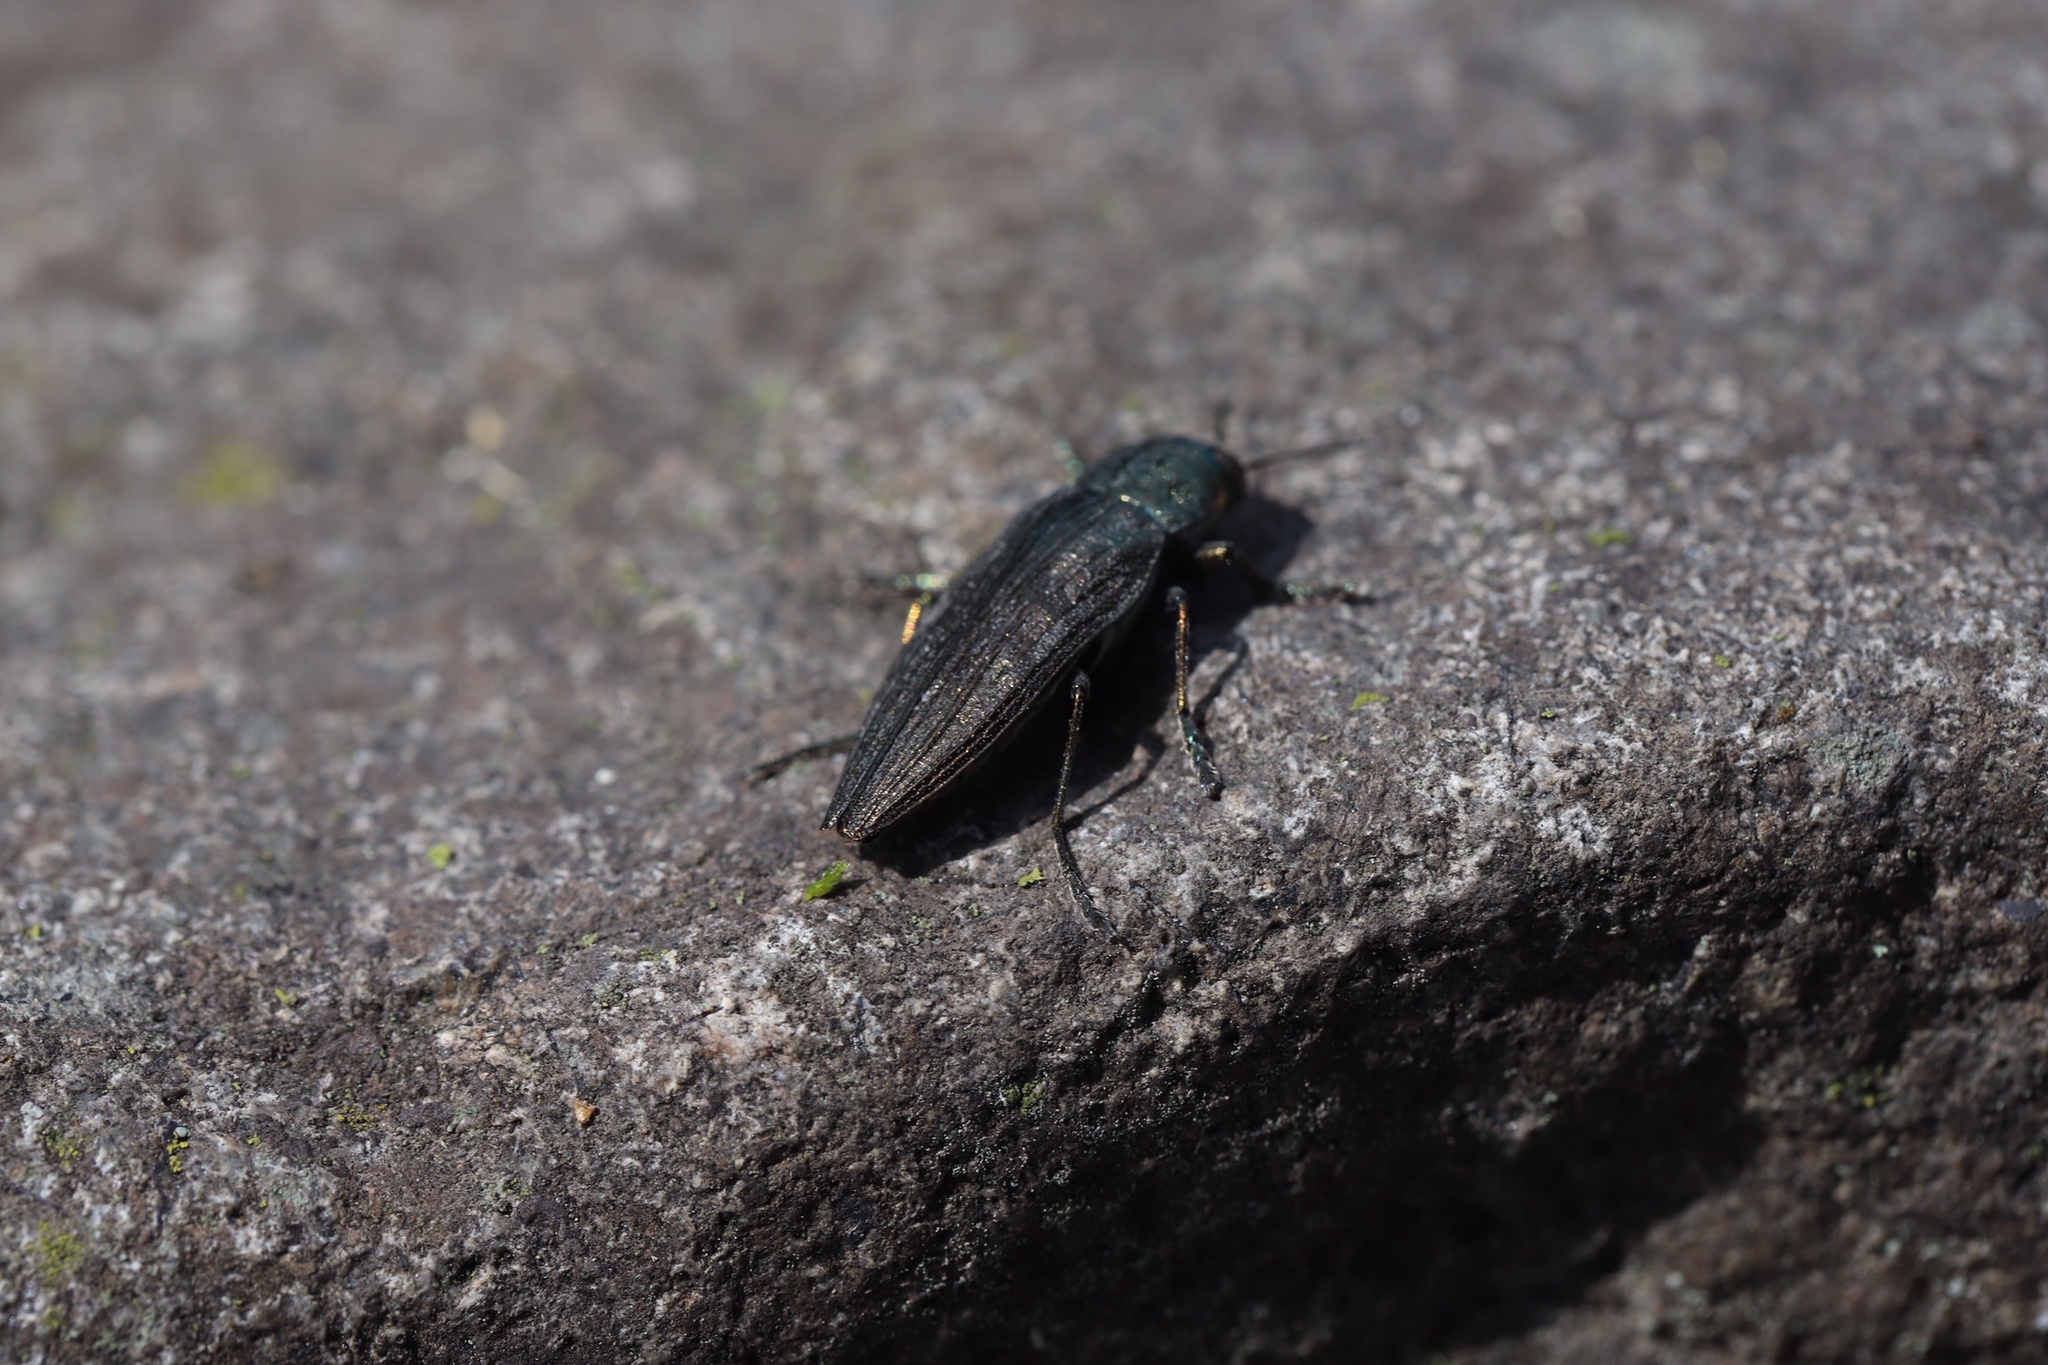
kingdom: Animalia
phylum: Arthropoda
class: Insecta
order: Coleoptera
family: Buprestidae
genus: Buprestis
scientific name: Buprestis maculativentris
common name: Spotted-belly buprestid beetle
